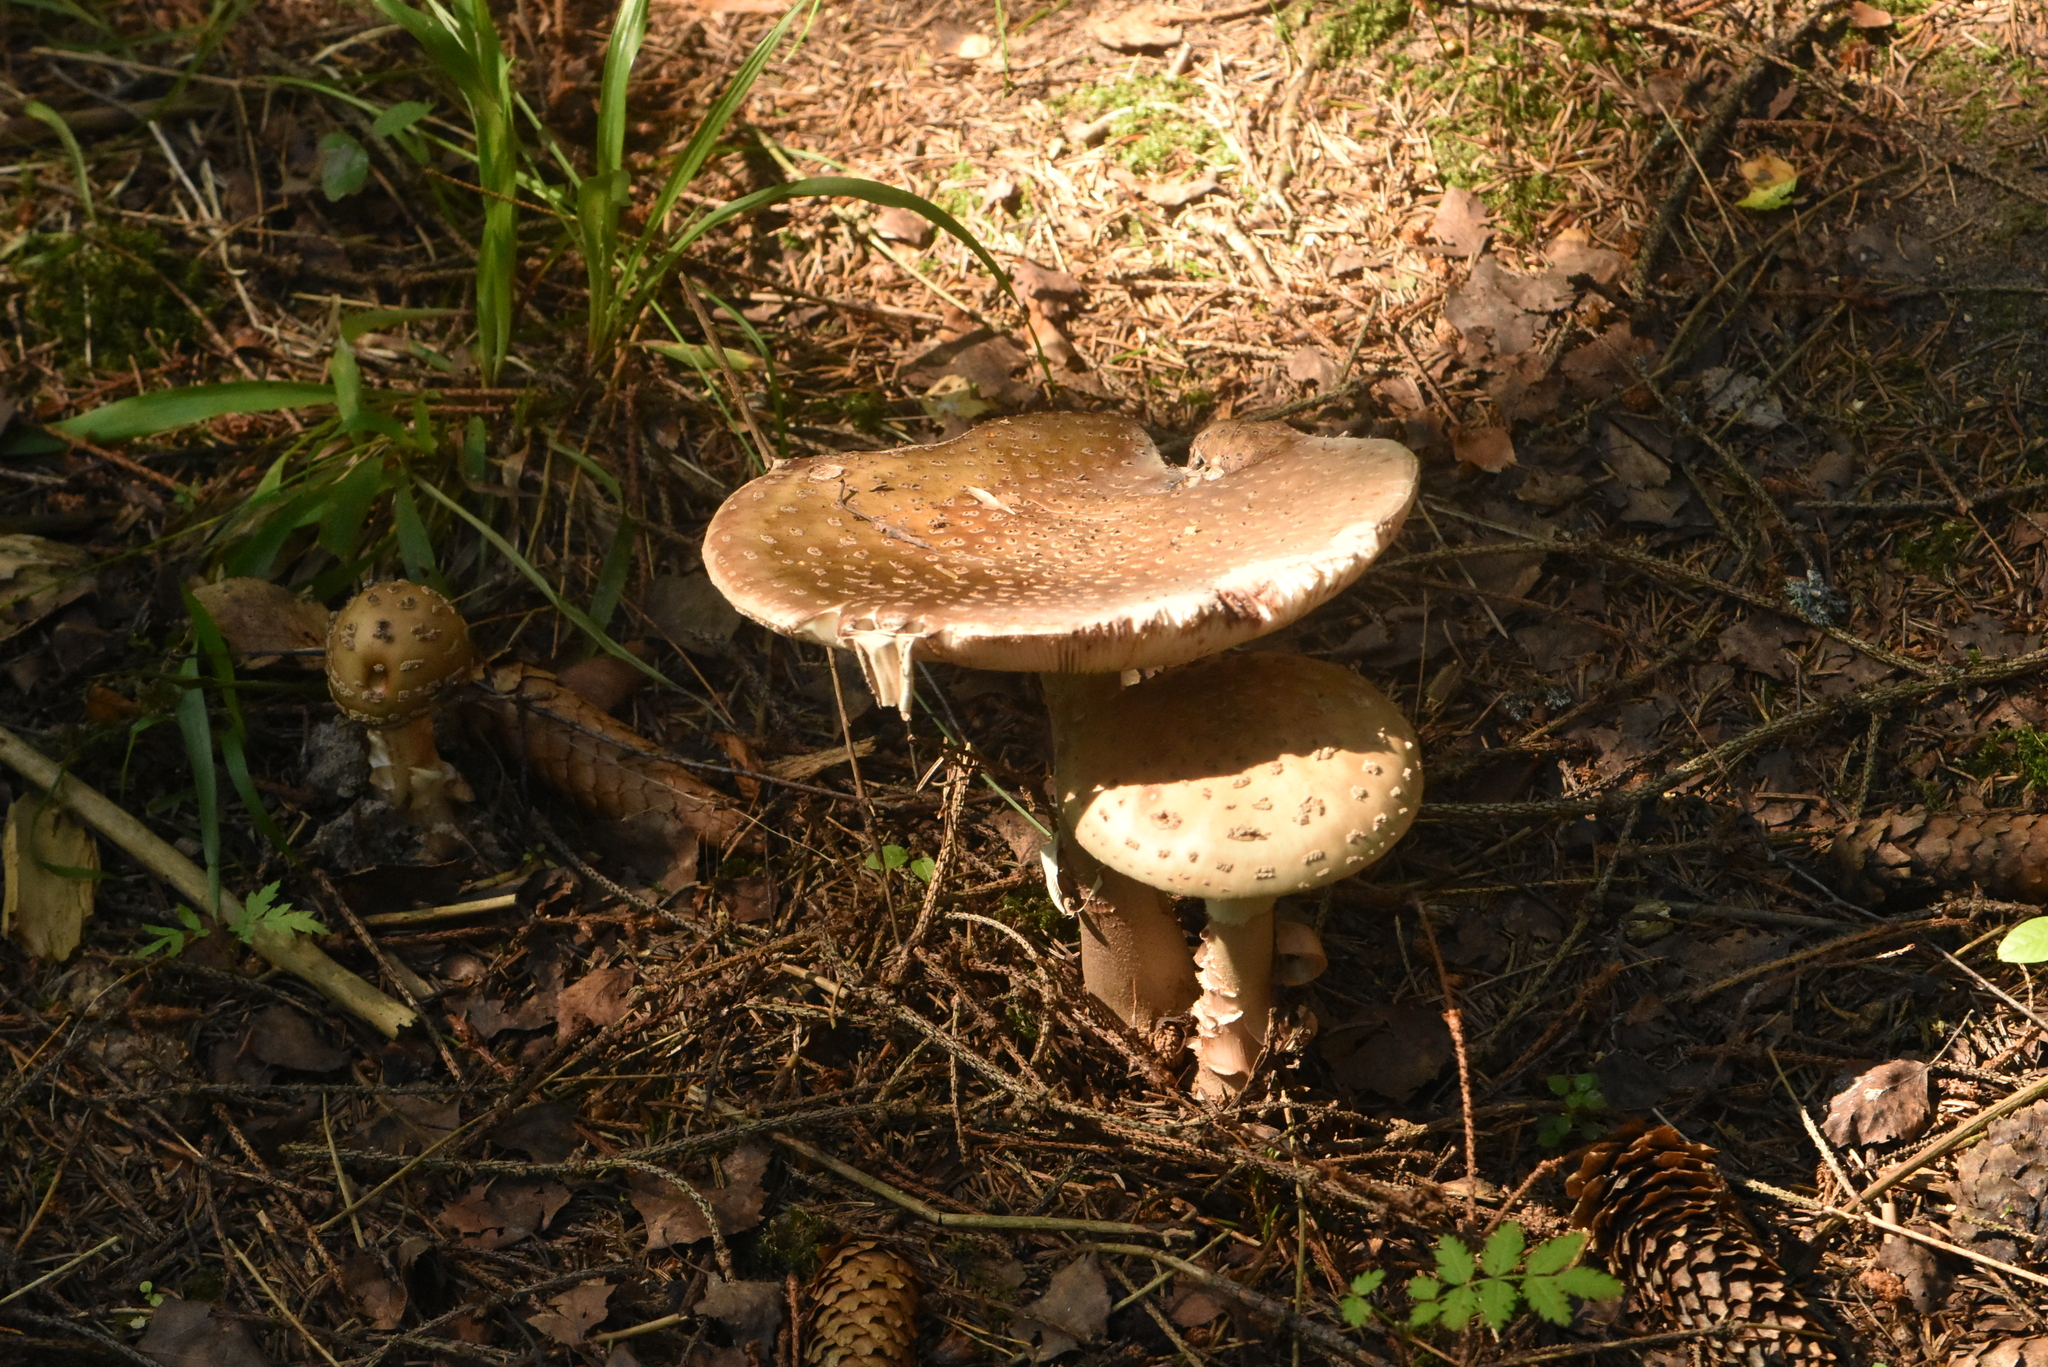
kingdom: Fungi
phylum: Basidiomycota
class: Agaricomycetes
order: Agaricales
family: Amanitaceae
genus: Amanita
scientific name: Amanita rubescens
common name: Blusher
